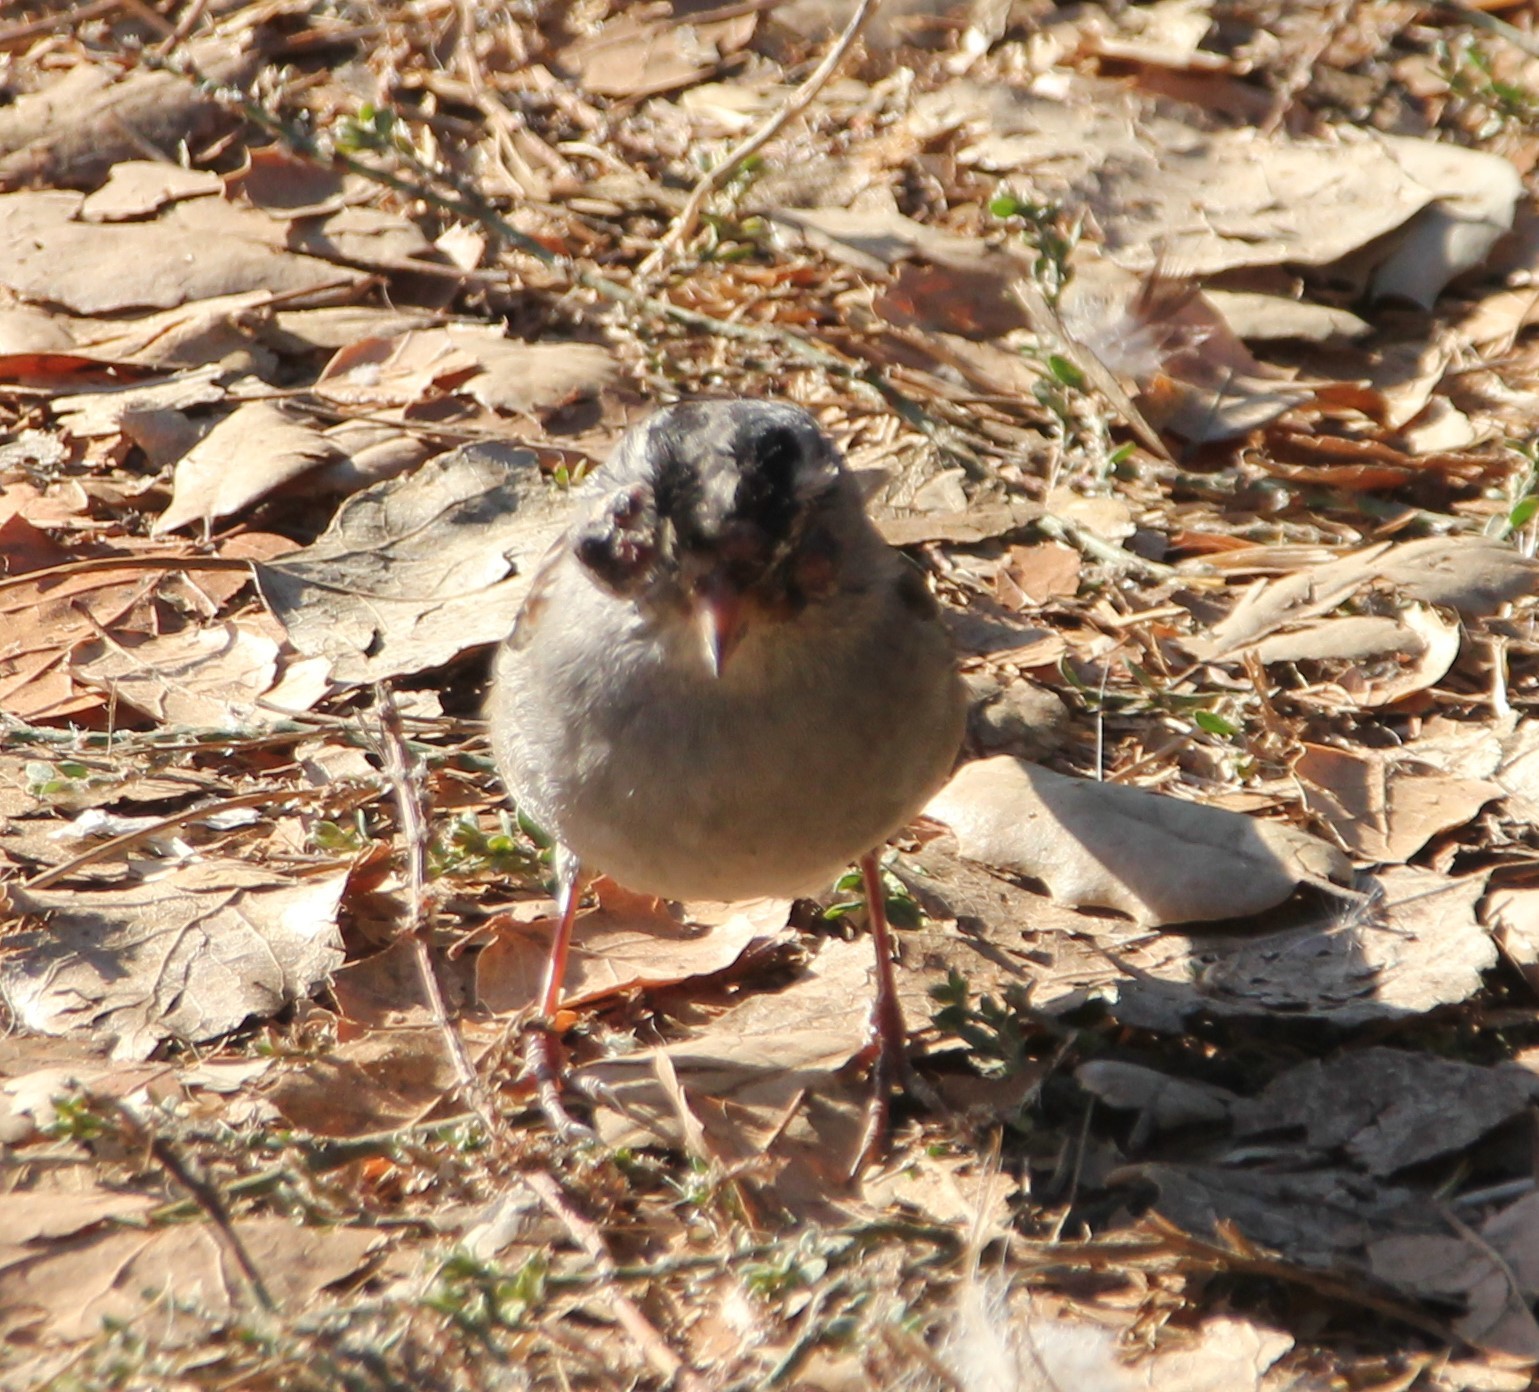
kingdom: Animalia
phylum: Chordata
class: Aves
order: Passeriformes
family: Passerellidae
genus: Zonotrichia
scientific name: Zonotrichia leucophrys
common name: White-crowned sparrow
